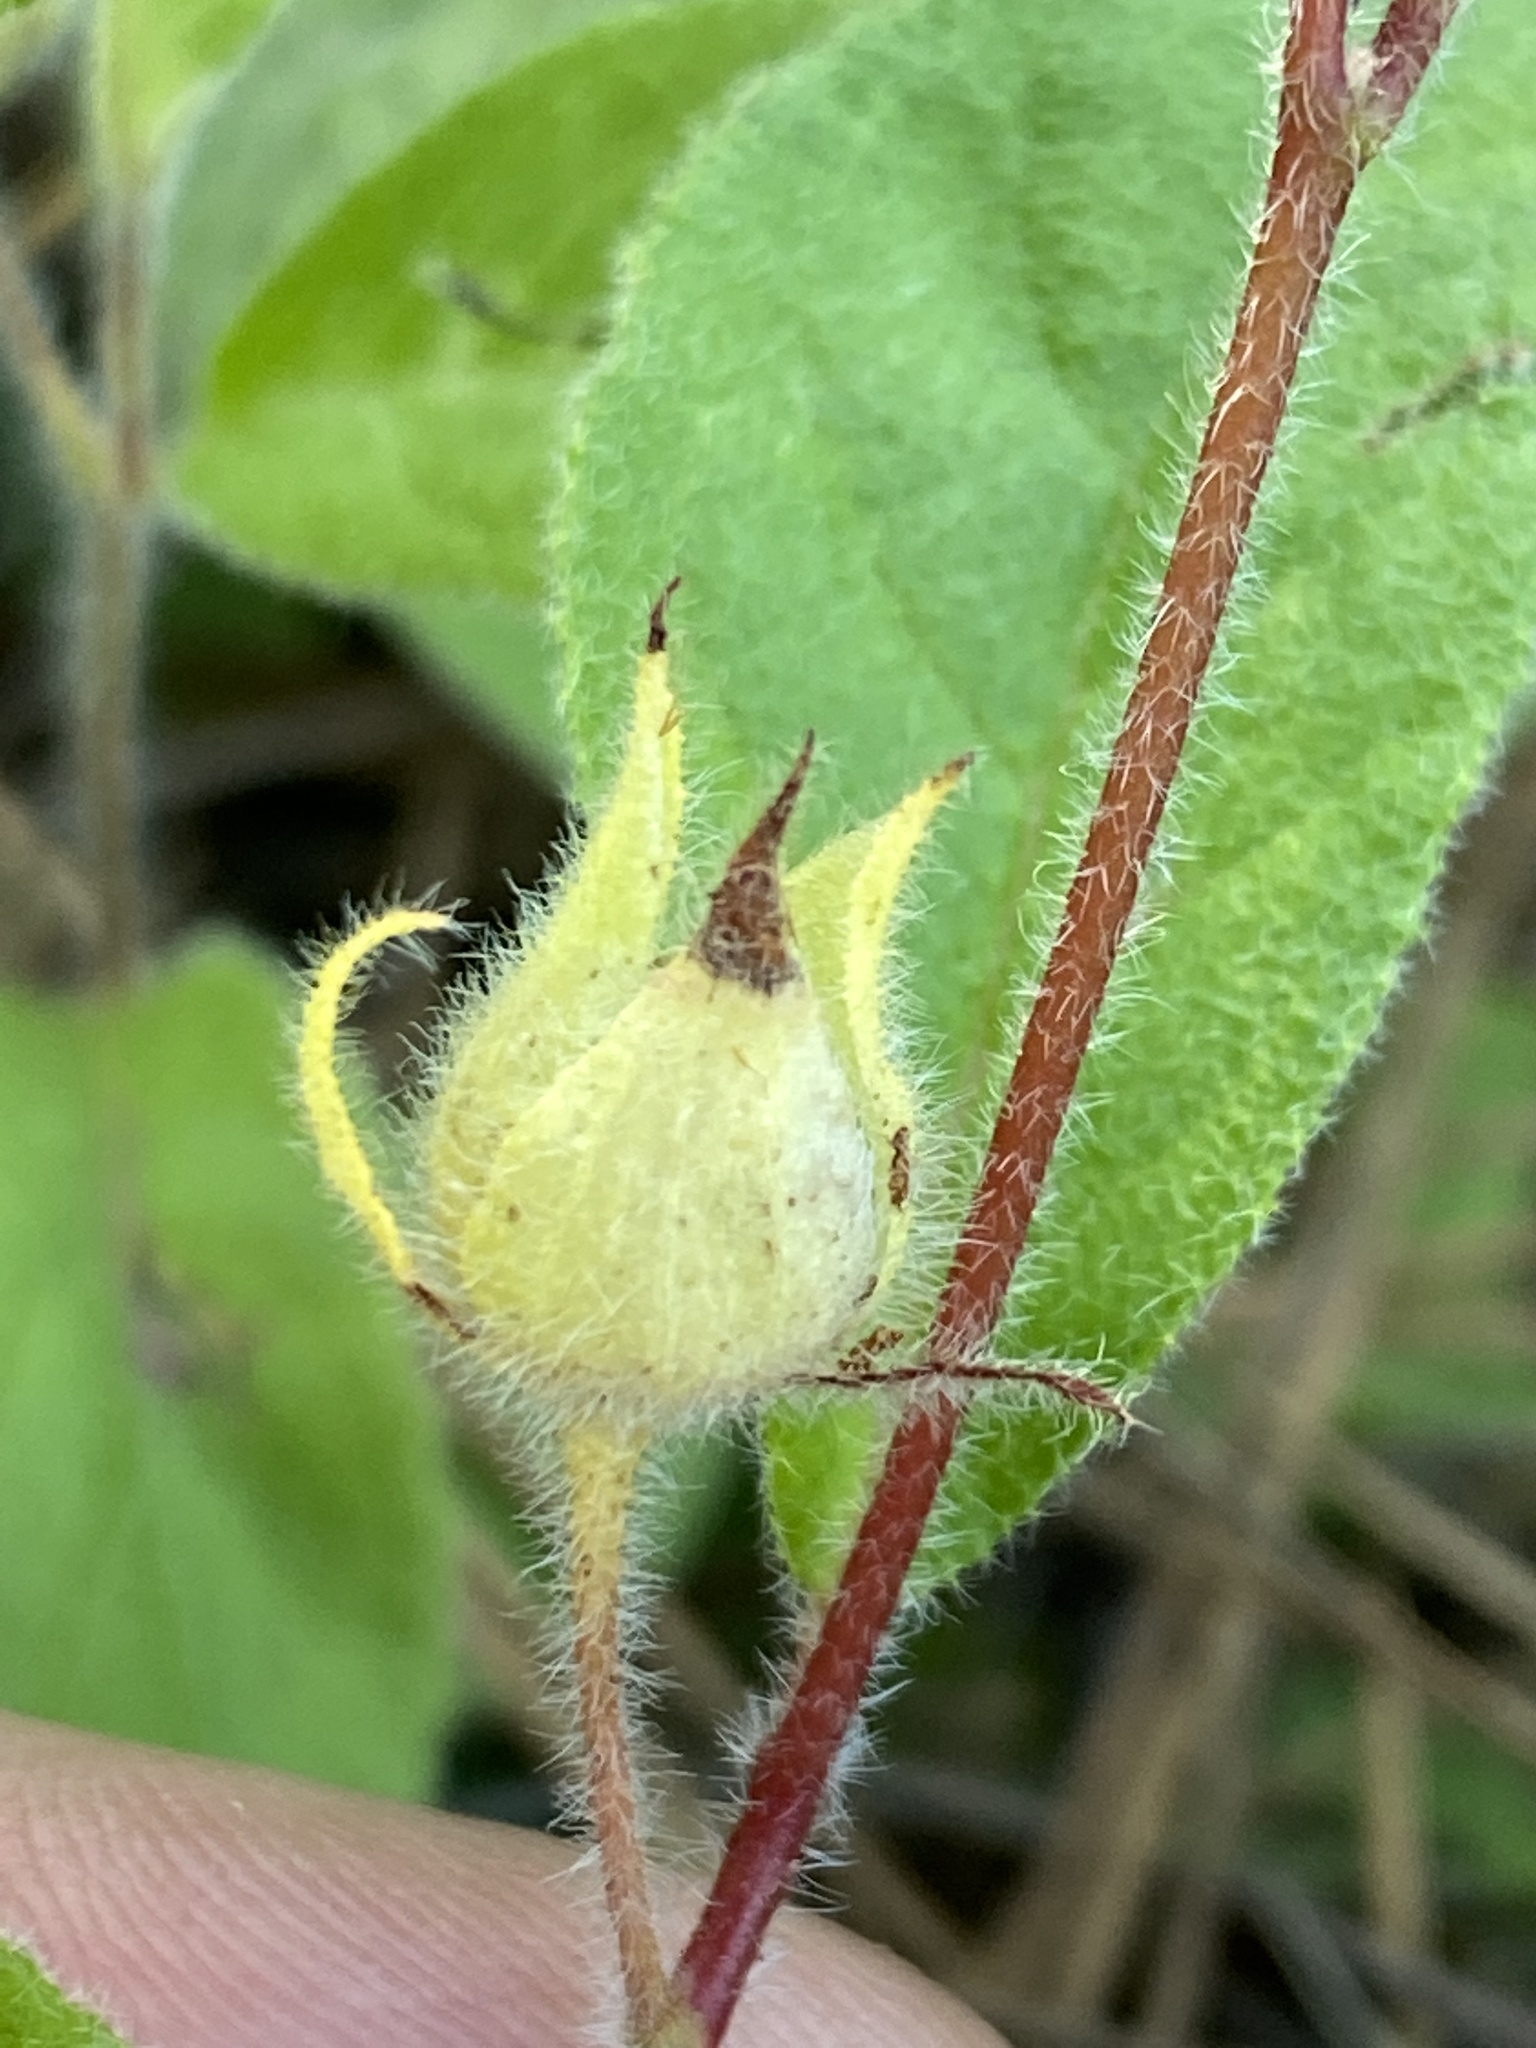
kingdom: Plantae
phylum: Tracheophyta
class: Magnoliopsida
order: Malvales
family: Cistaceae
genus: Crocanthemum
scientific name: Crocanthemum carolinianum
